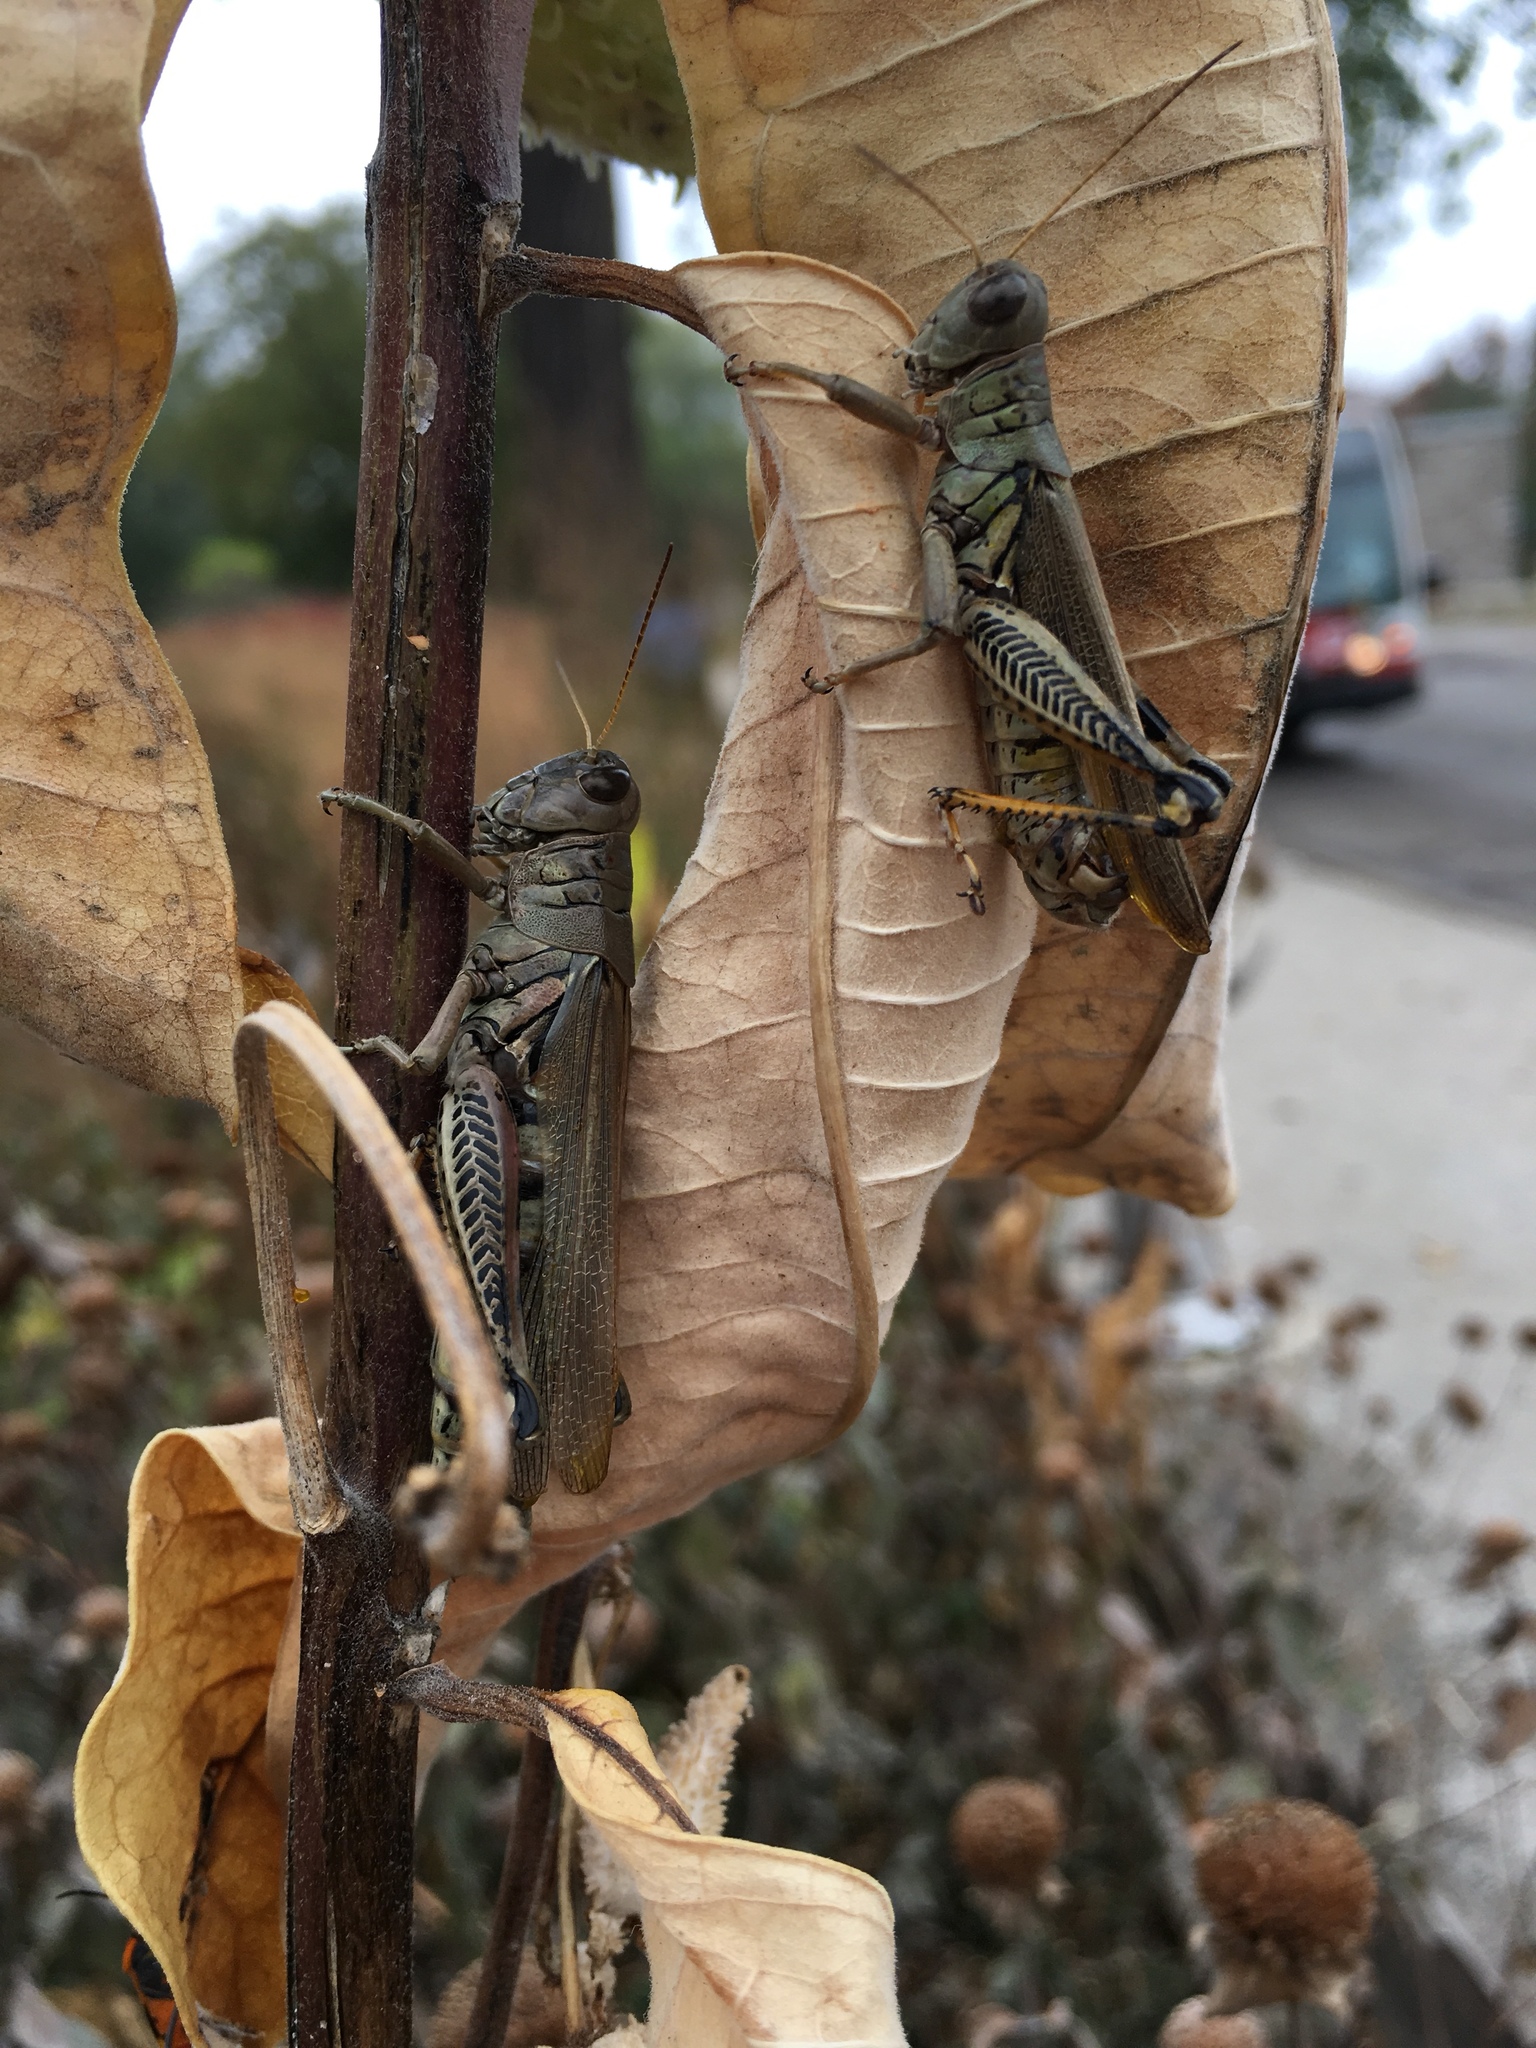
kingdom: Animalia
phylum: Arthropoda
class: Insecta
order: Orthoptera
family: Acrididae
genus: Melanoplus
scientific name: Melanoplus differentialis
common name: Differential grasshopper
